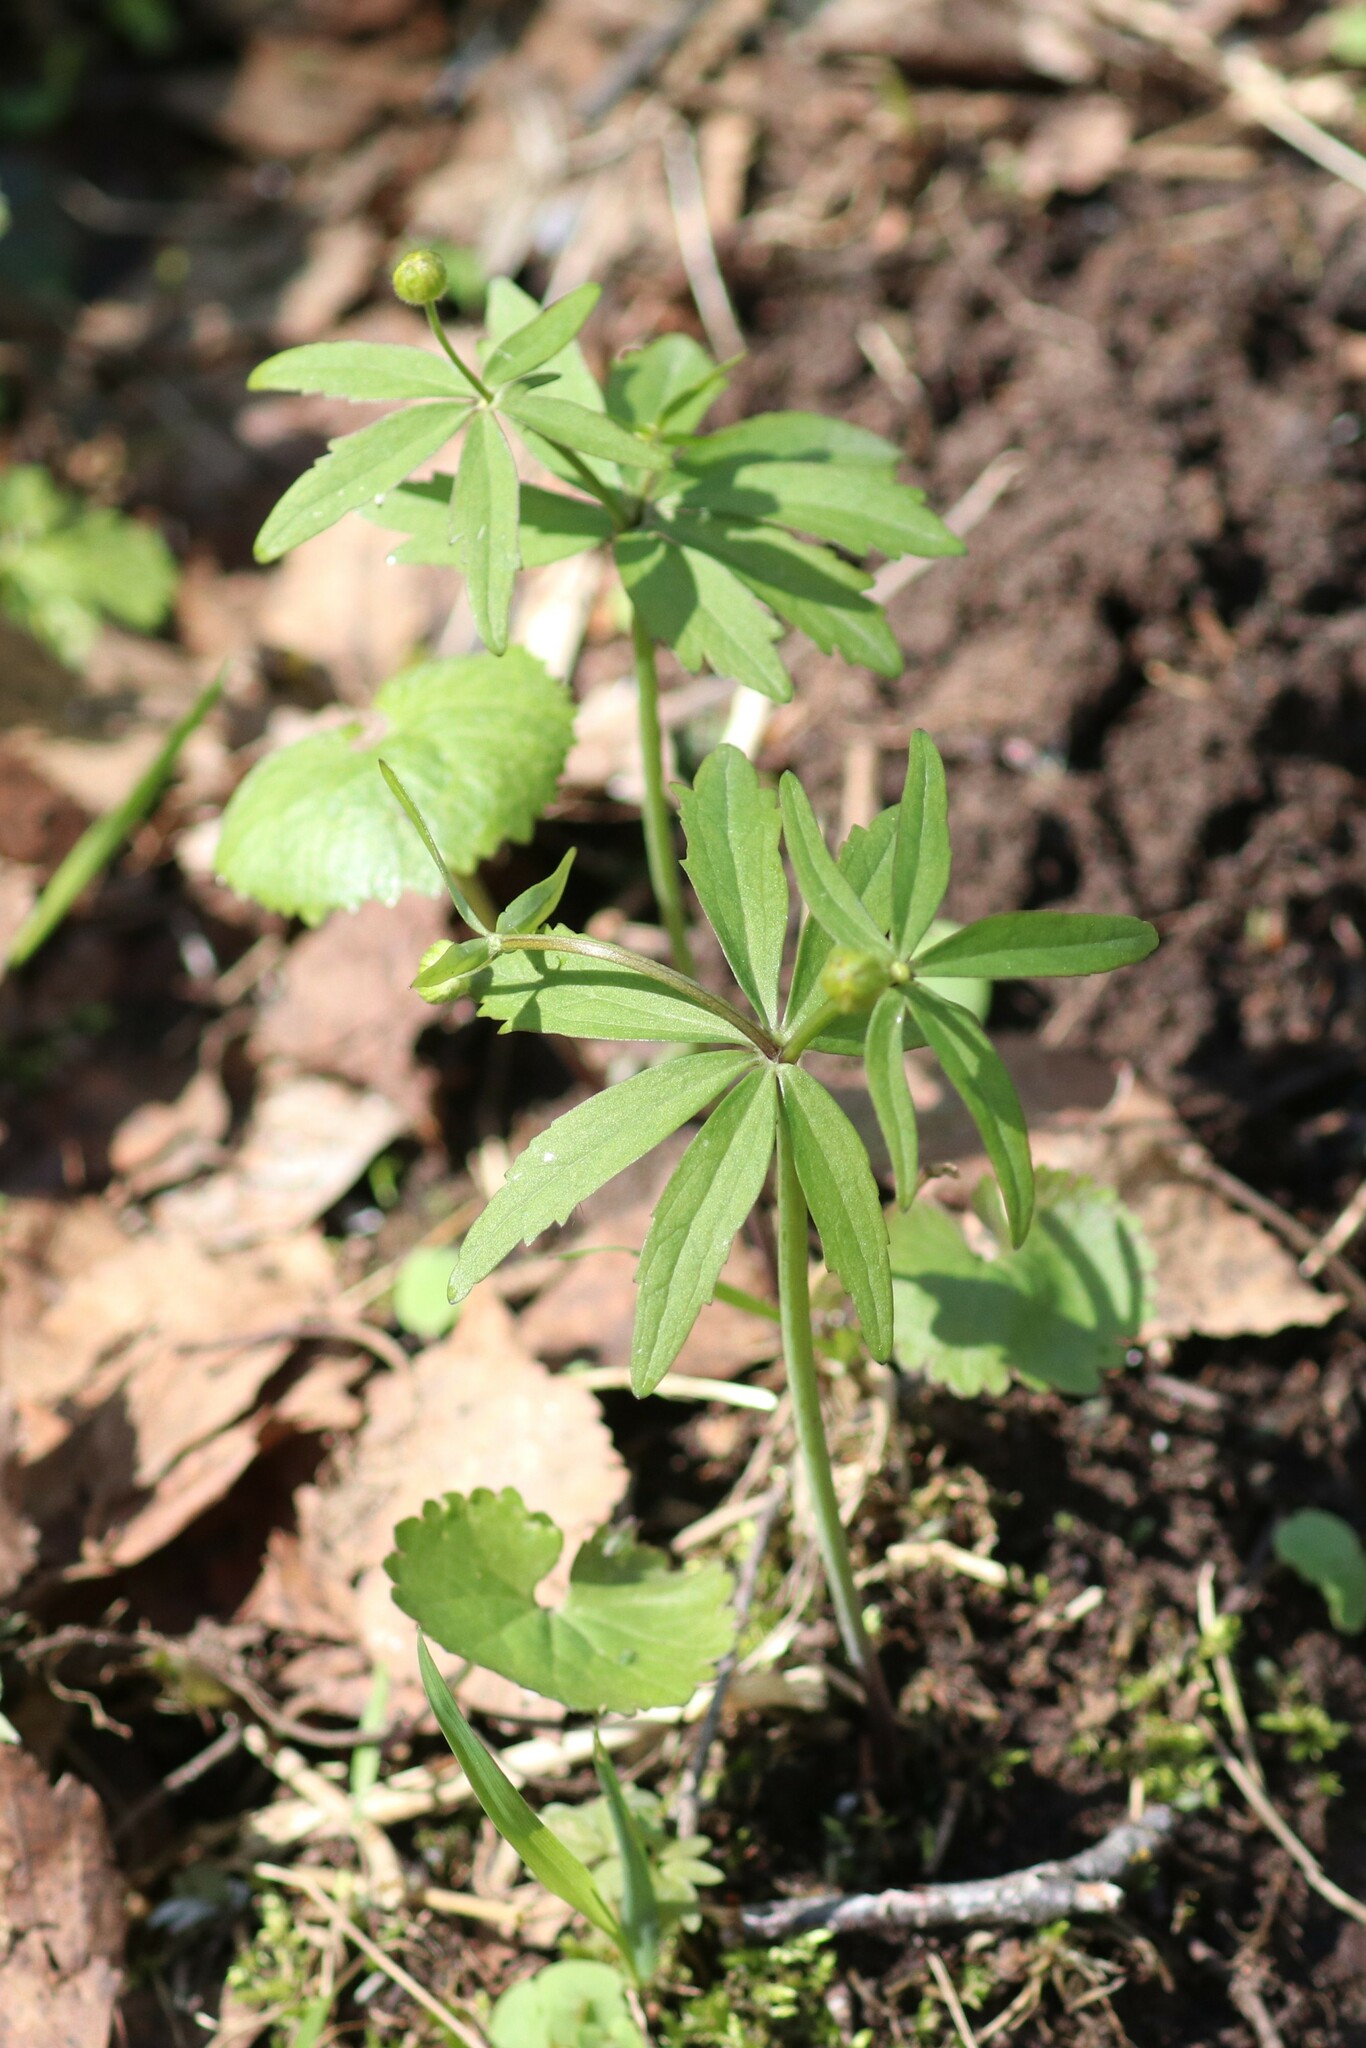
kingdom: Plantae
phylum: Tracheophyta
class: Magnoliopsida
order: Ranunculales
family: Ranunculaceae
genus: Ranunculus
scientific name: Ranunculus cassubicus
